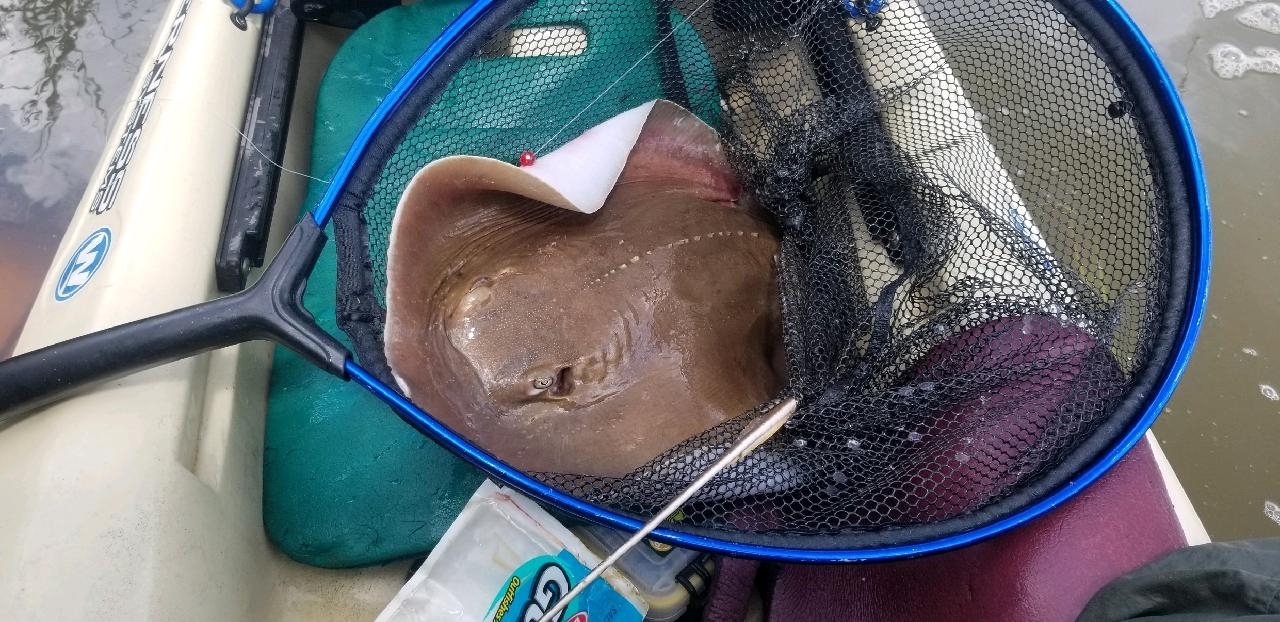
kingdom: Animalia
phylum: Chordata
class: Elasmobranchii
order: Myliobatiformes
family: Dasyatidae
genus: Hypanus
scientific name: Hypanus sabinus
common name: Atlantic stingray
